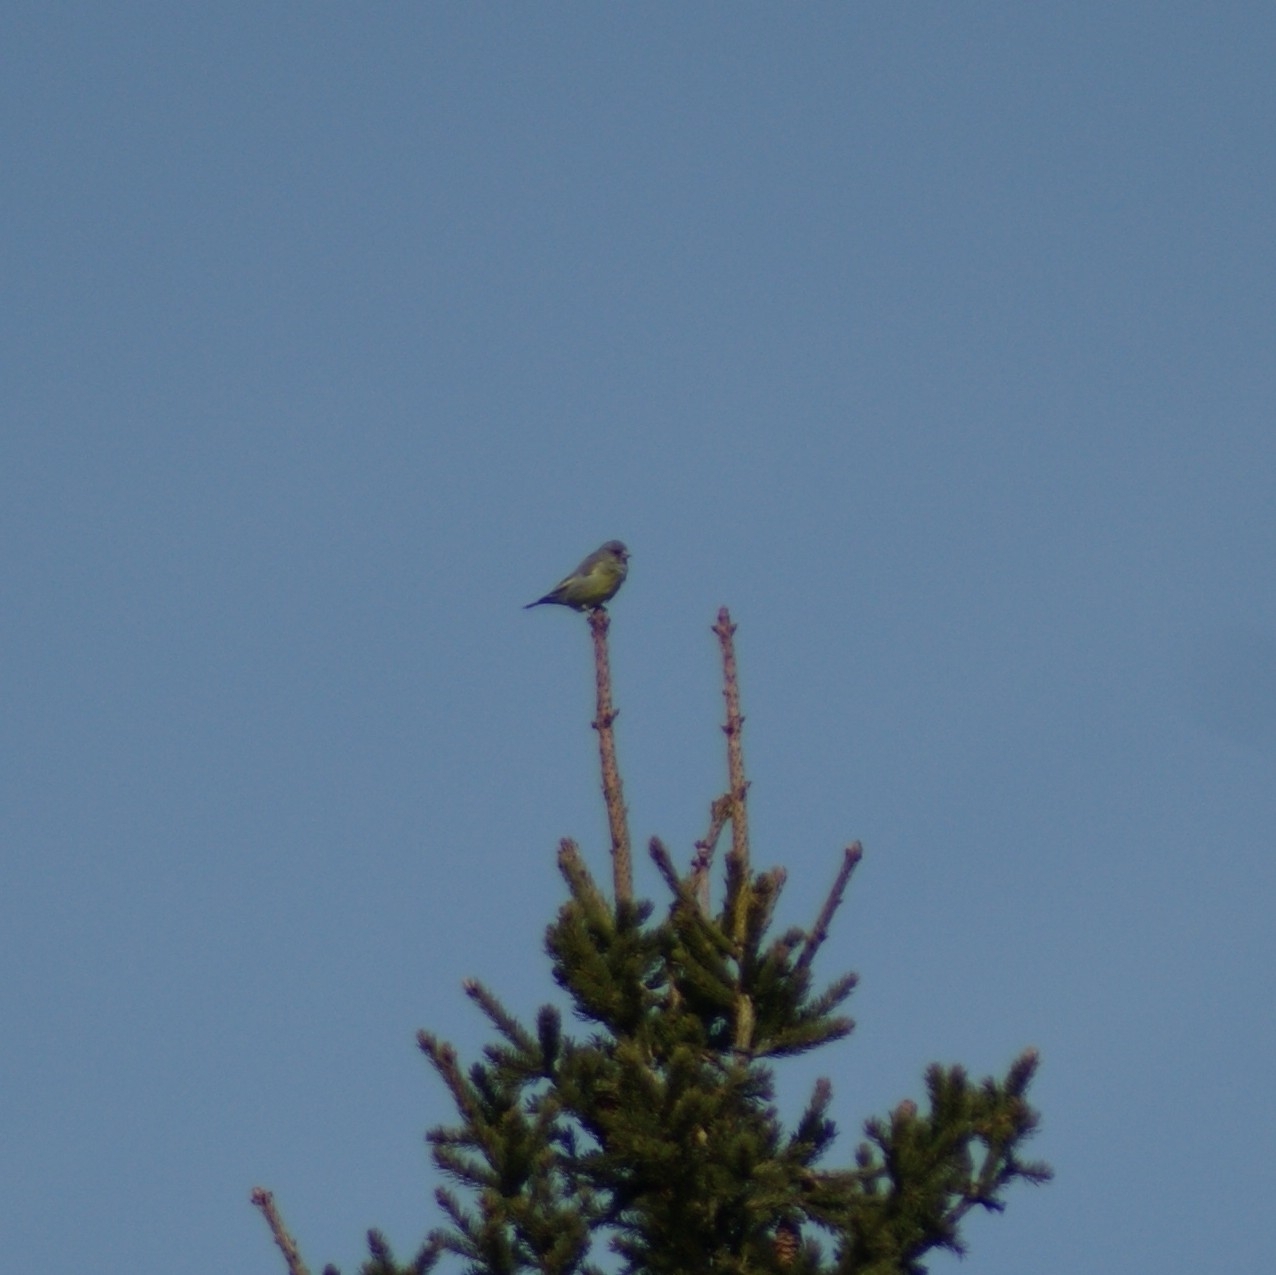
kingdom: Plantae
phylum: Tracheophyta
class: Liliopsida
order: Poales
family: Poaceae
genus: Chloris
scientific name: Chloris chloris
